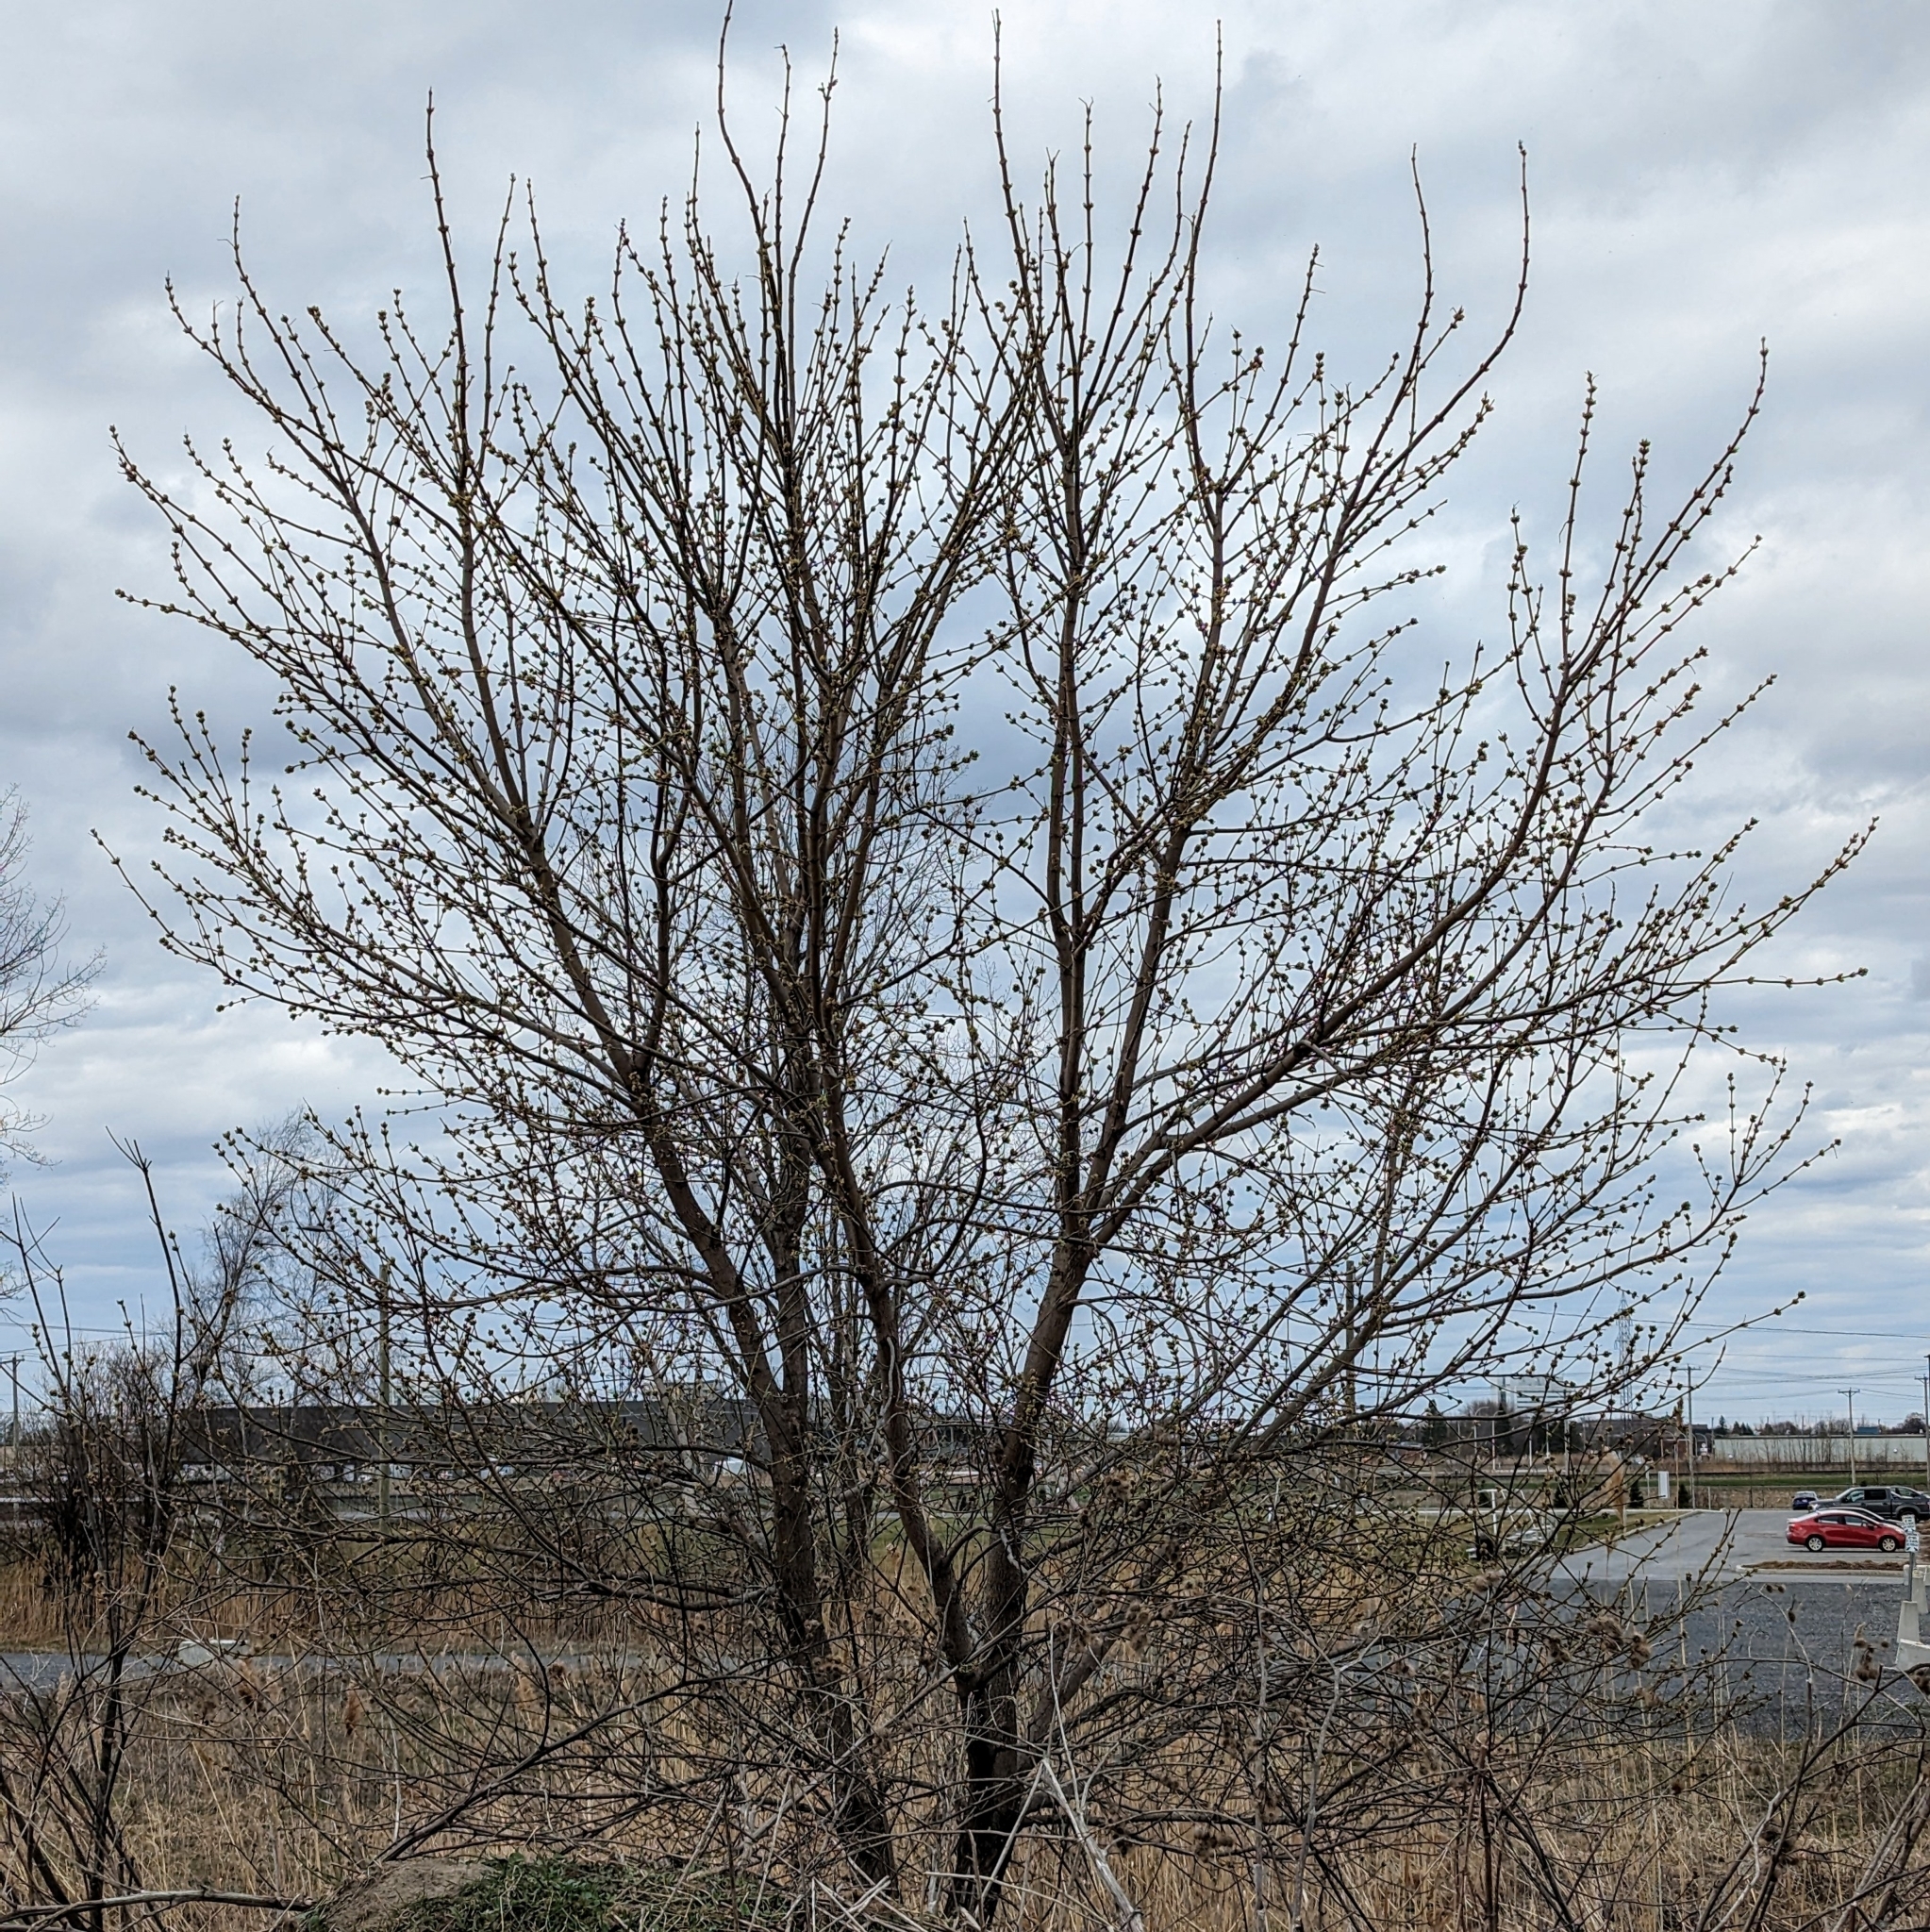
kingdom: Plantae
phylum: Tracheophyta
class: Magnoliopsida
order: Sapindales
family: Sapindaceae
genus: Acer
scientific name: Acer negundo
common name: Ashleaf maple
